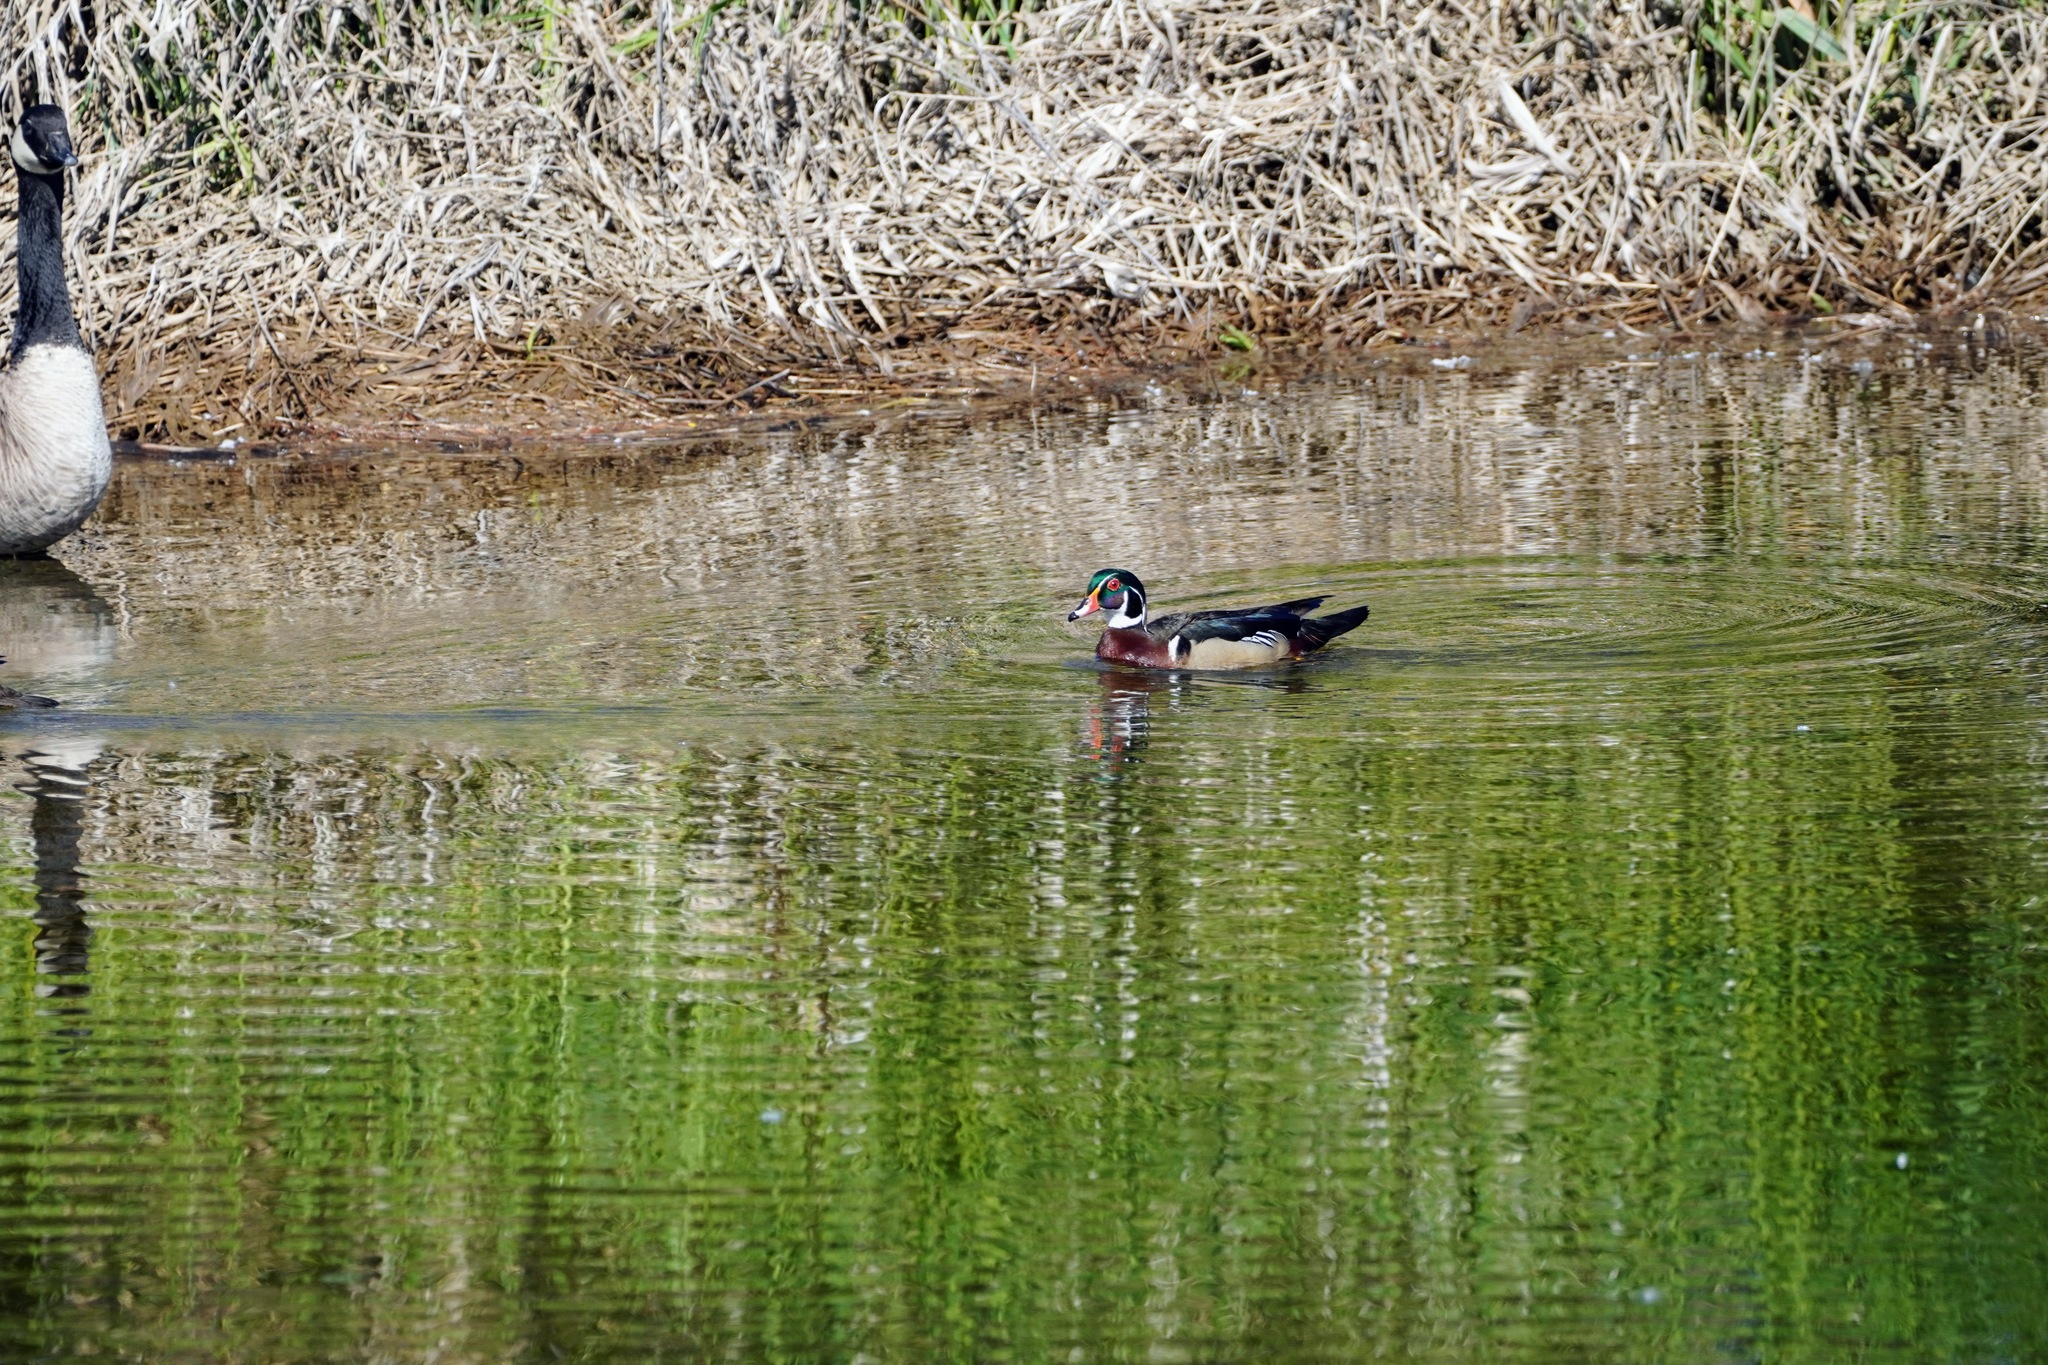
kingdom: Animalia
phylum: Chordata
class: Aves
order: Anseriformes
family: Anatidae
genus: Aix
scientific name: Aix sponsa
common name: Wood duck
